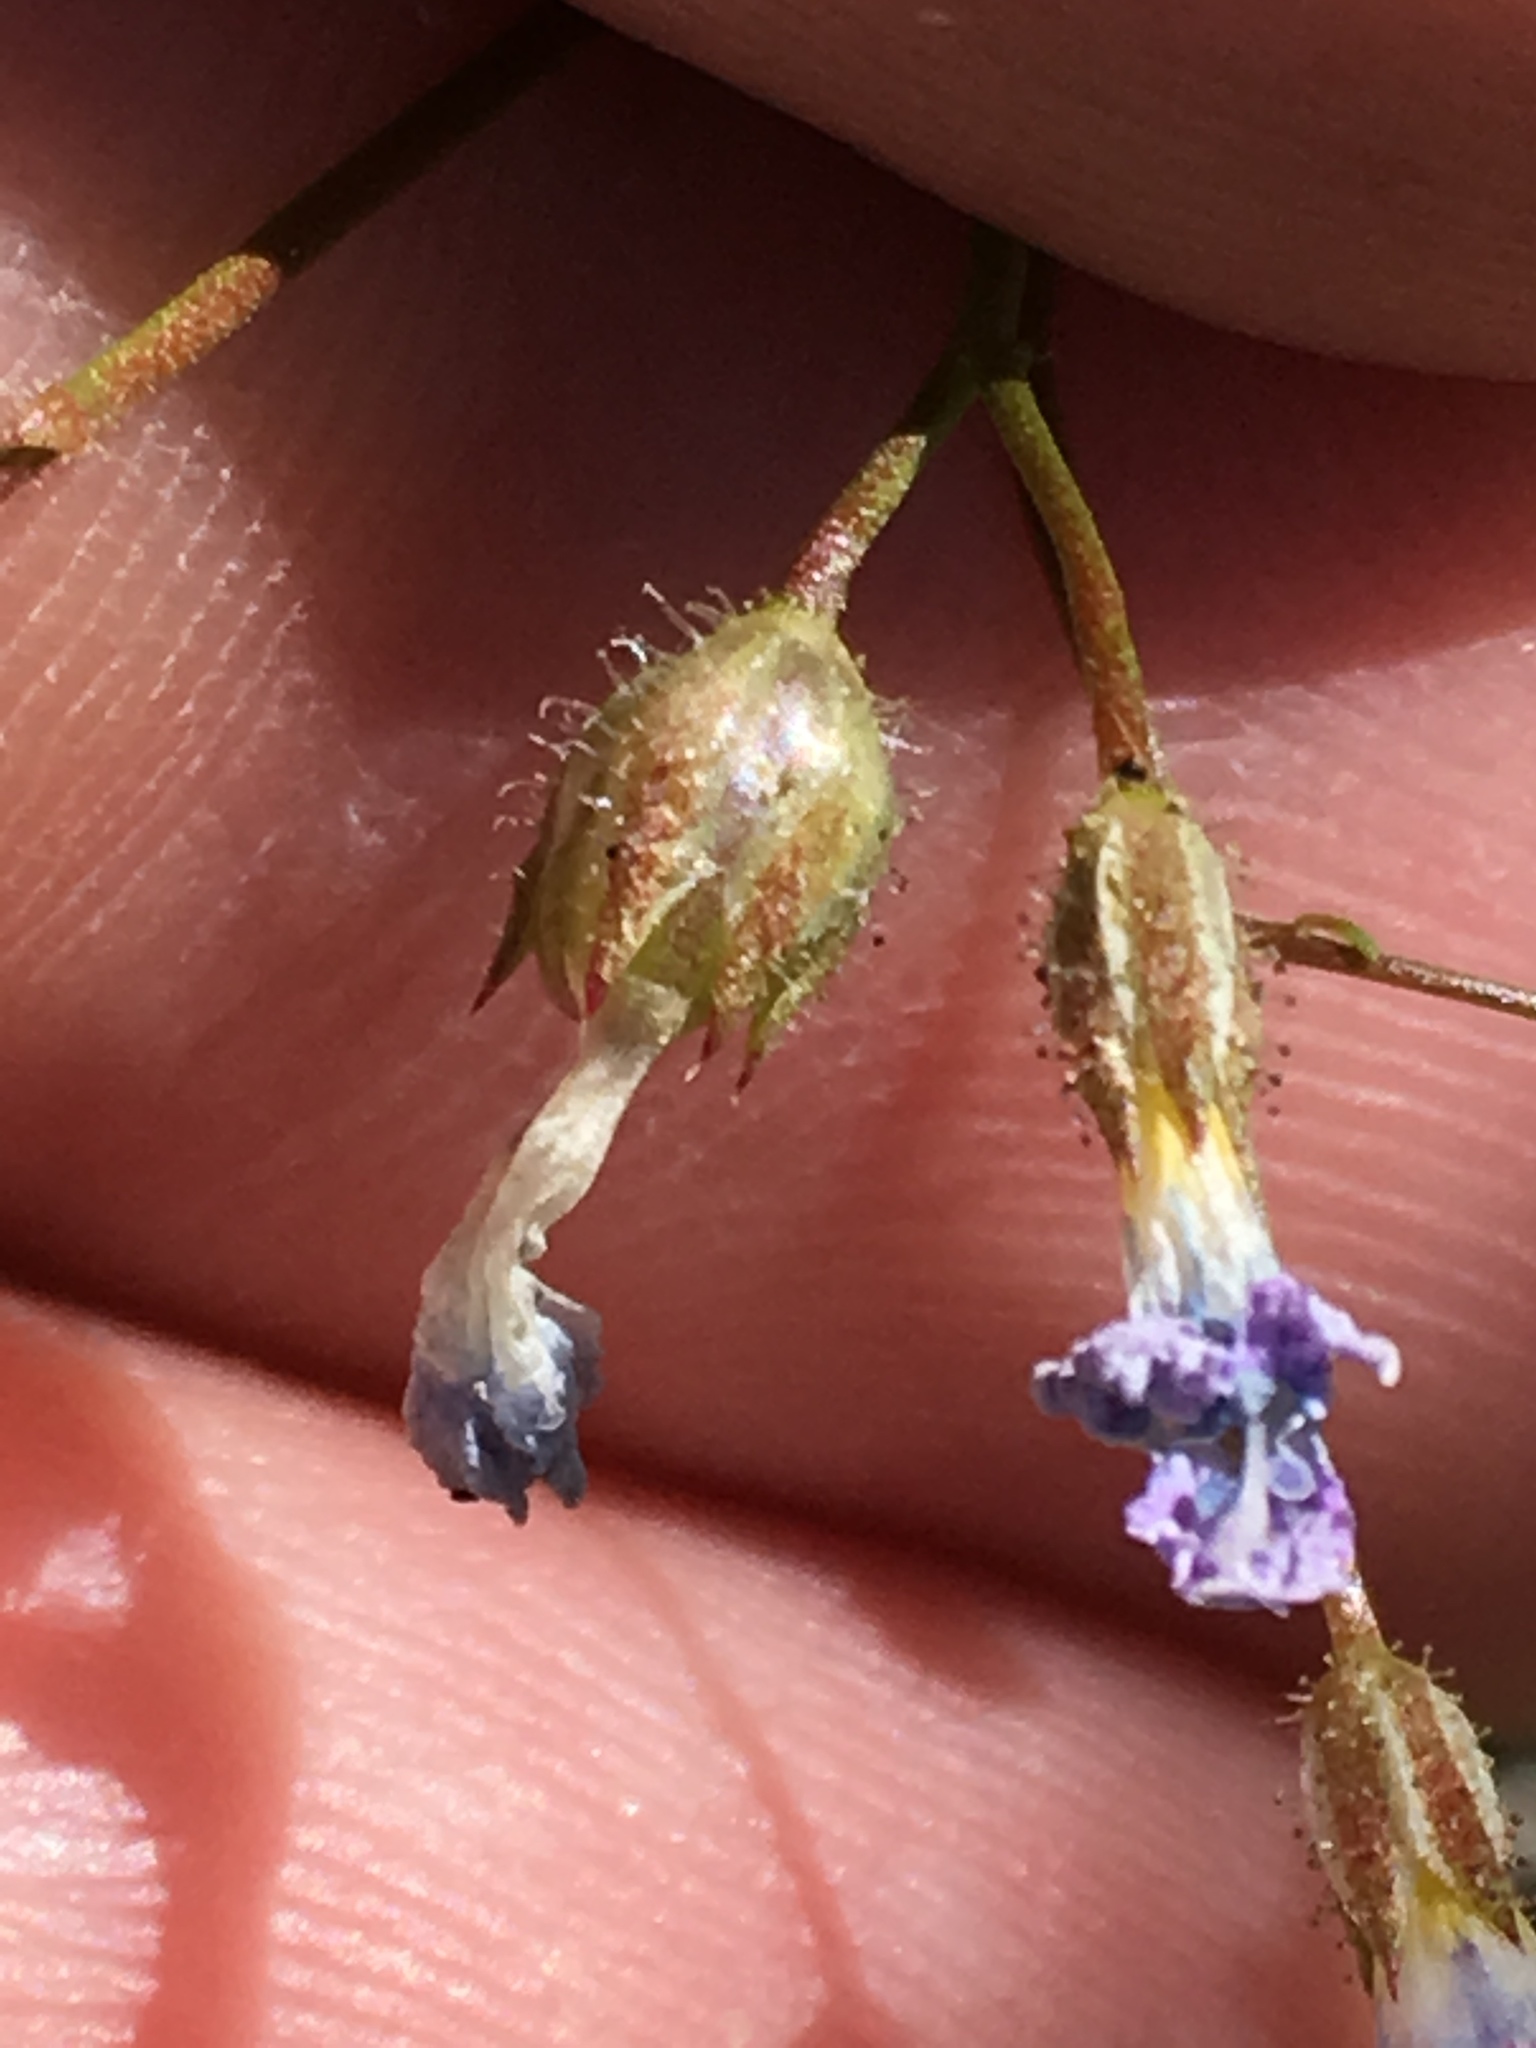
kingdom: Plantae
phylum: Tracheophyta
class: Magnoliopsida
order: Ericales
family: Polemoniaceae
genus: Gilia
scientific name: Gilia stellata
